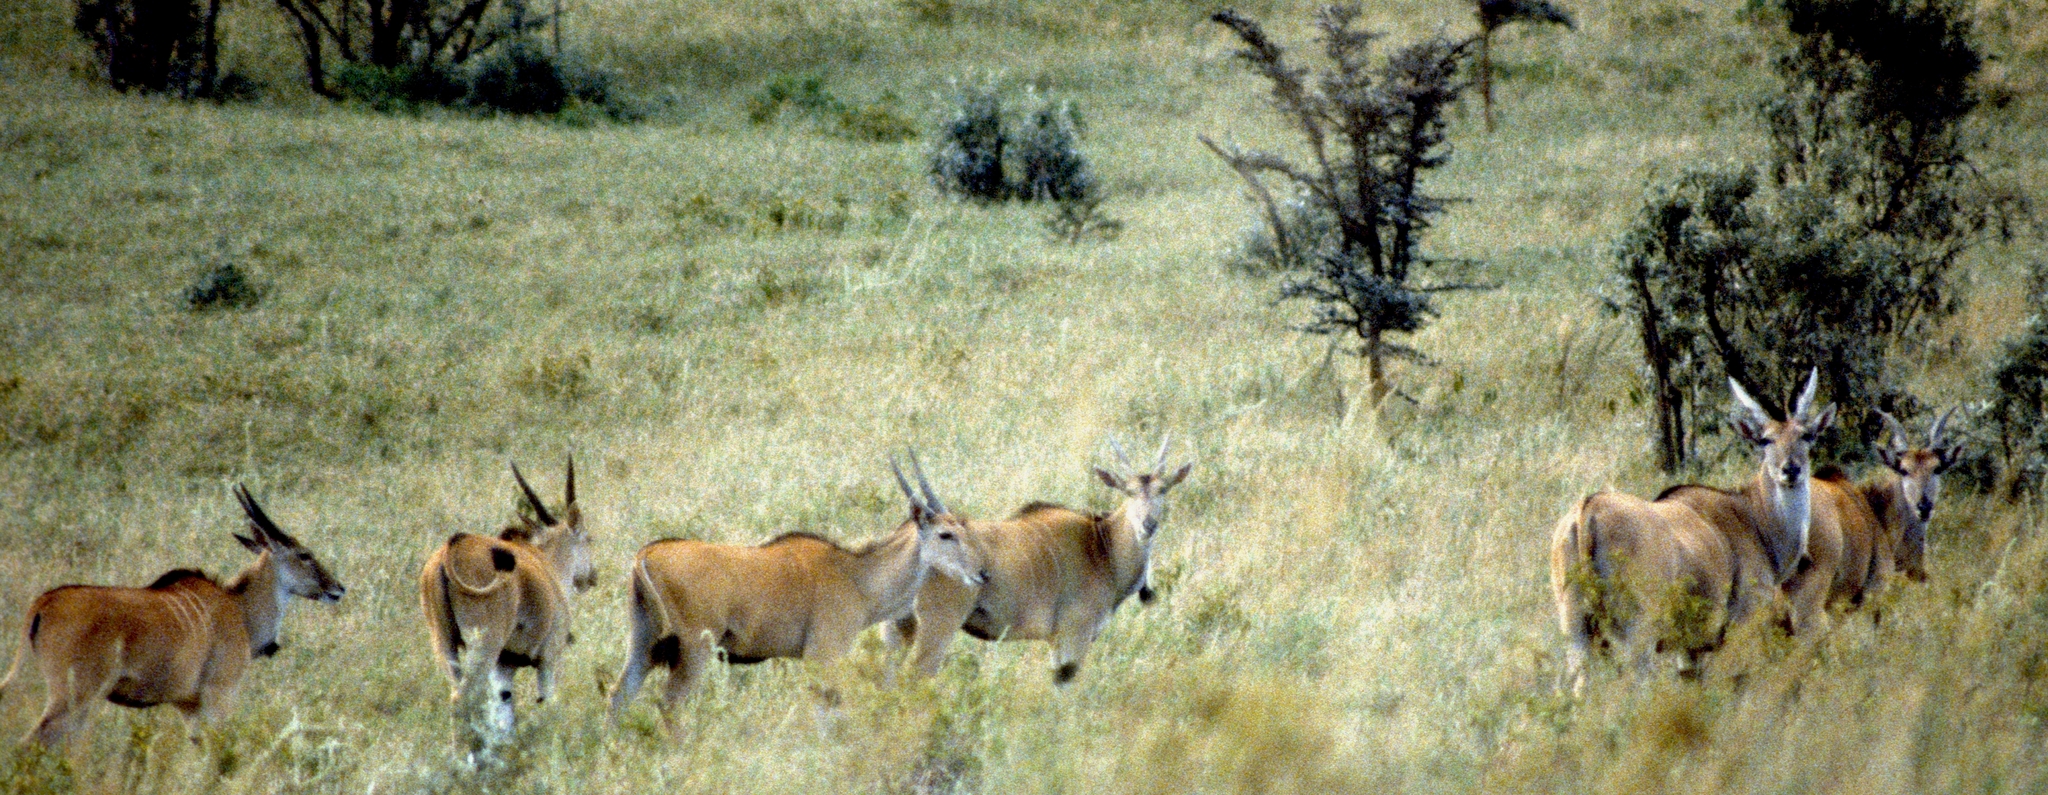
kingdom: Animalia
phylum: Chordata
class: Mammalia
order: Artiodactyla
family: Bovidae
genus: Taurotragus
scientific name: Taurotragus oryx
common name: Common eland
